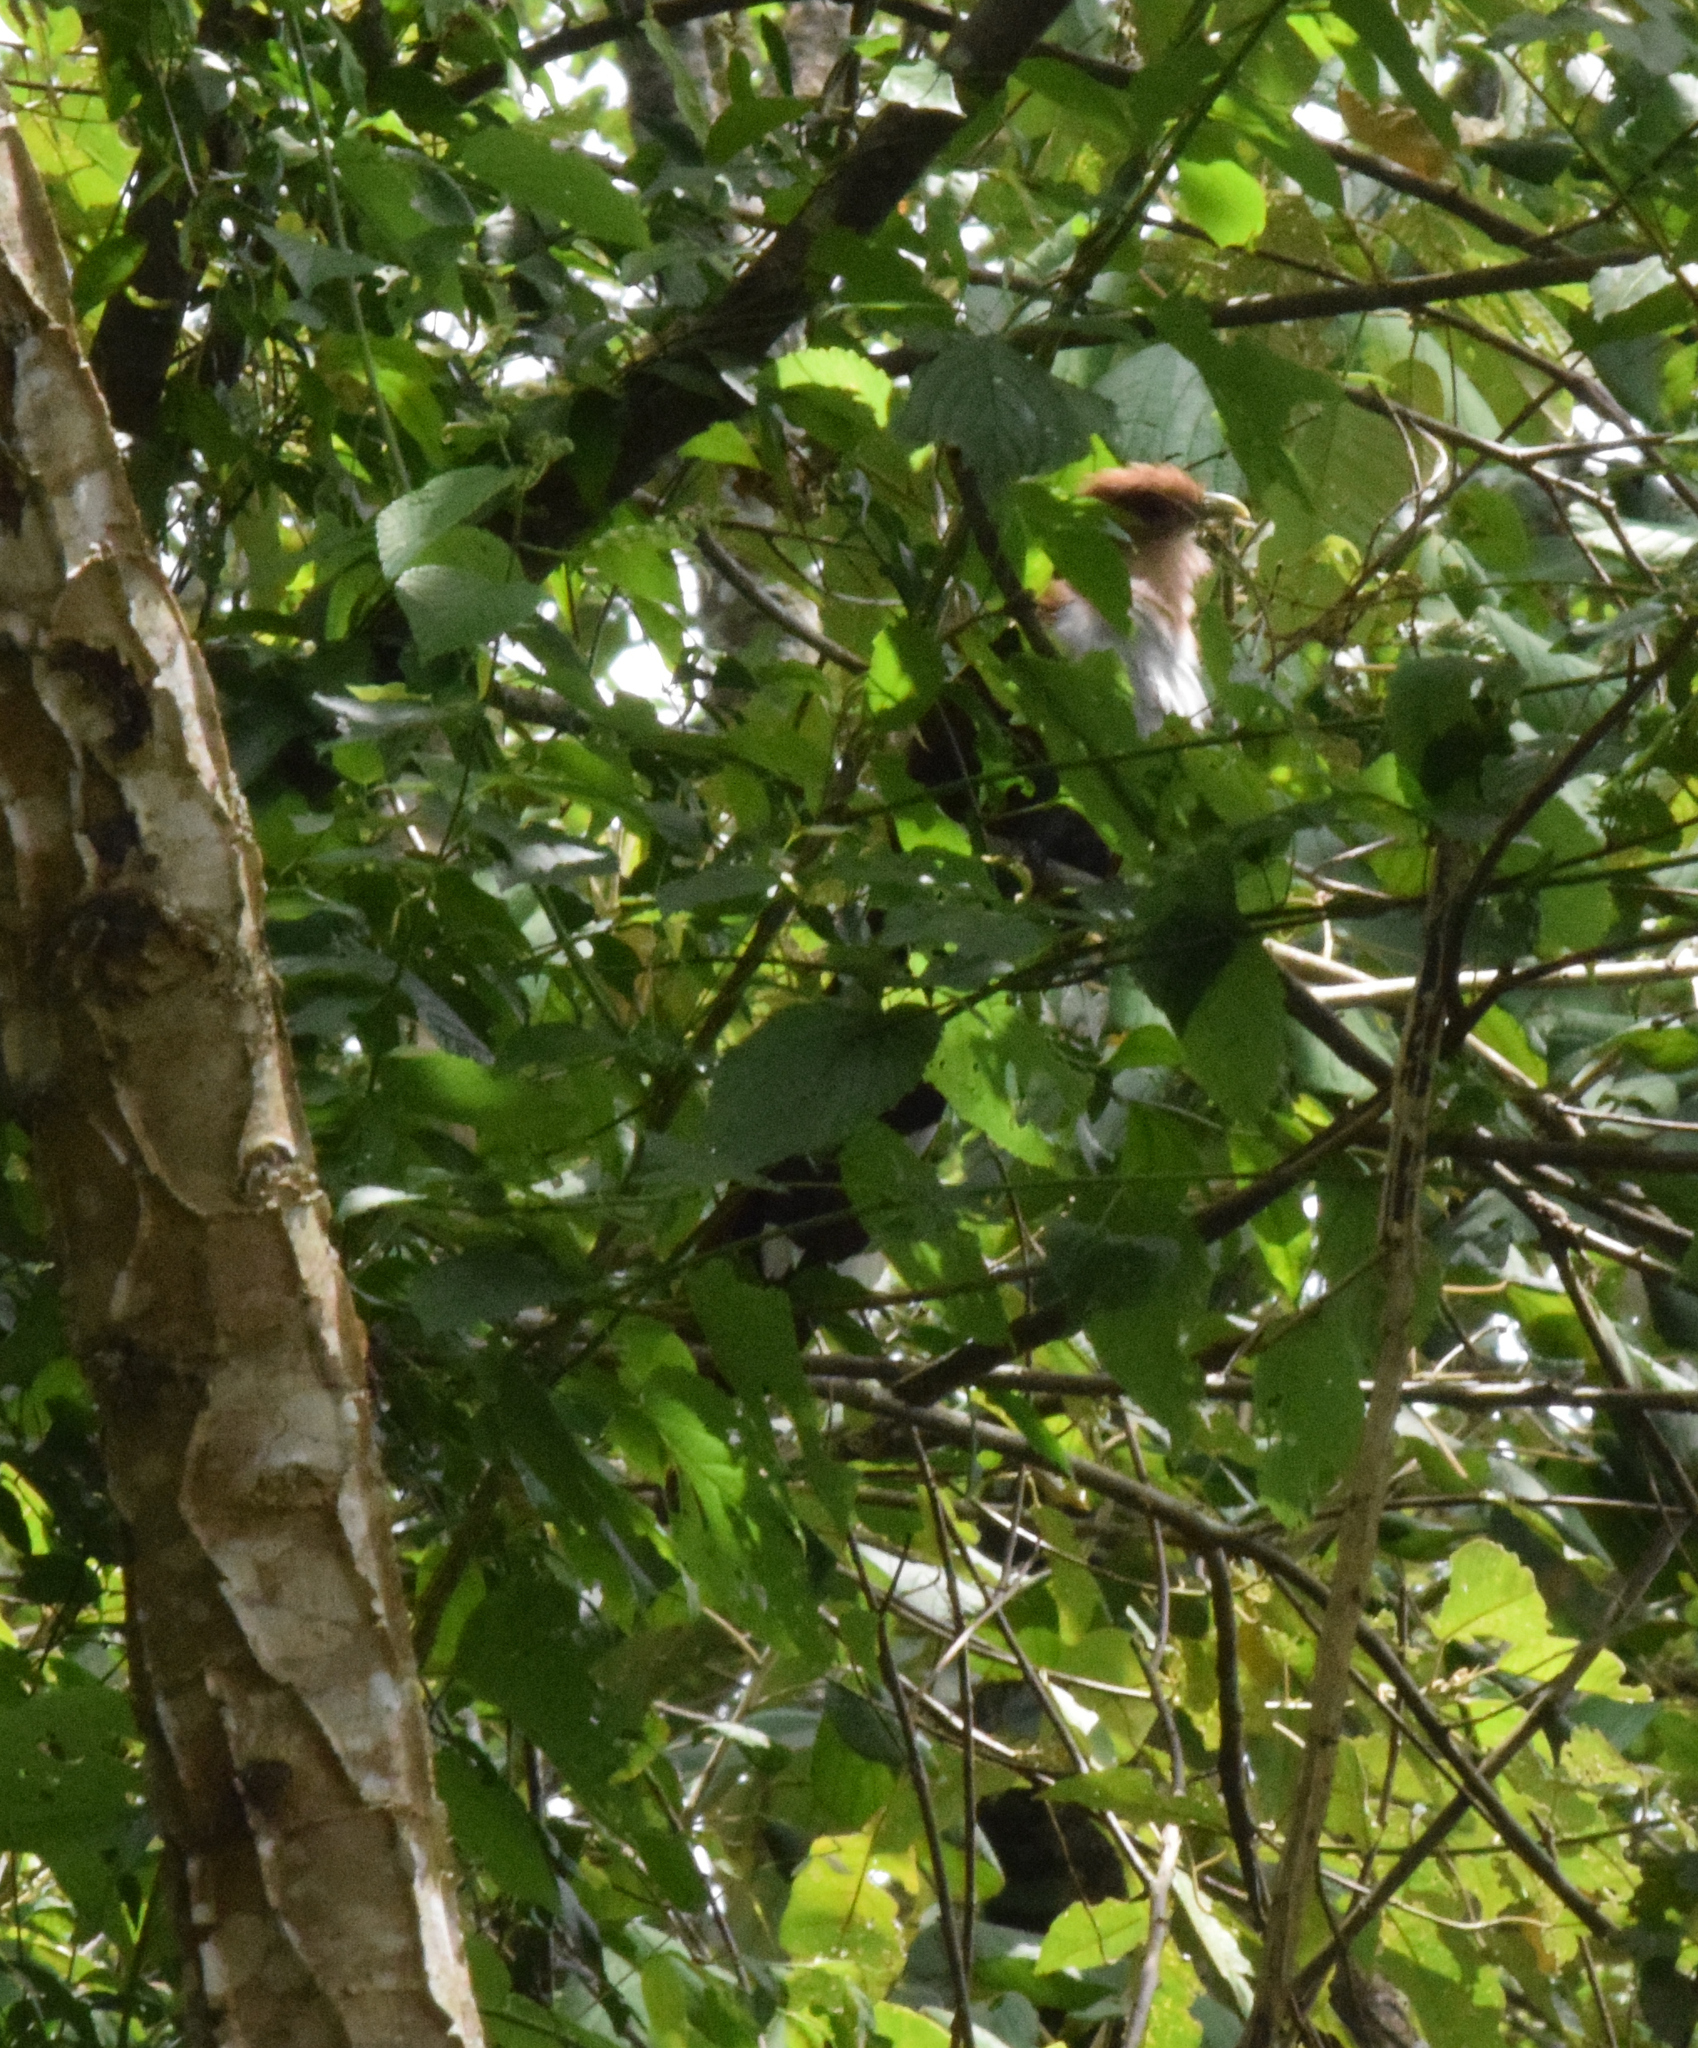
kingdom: Animalia
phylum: Chordata
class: Aves
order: Cuculiformes
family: Cuculidae
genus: Piaya
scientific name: Piaya cayana
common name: Squirrel cuckoo
